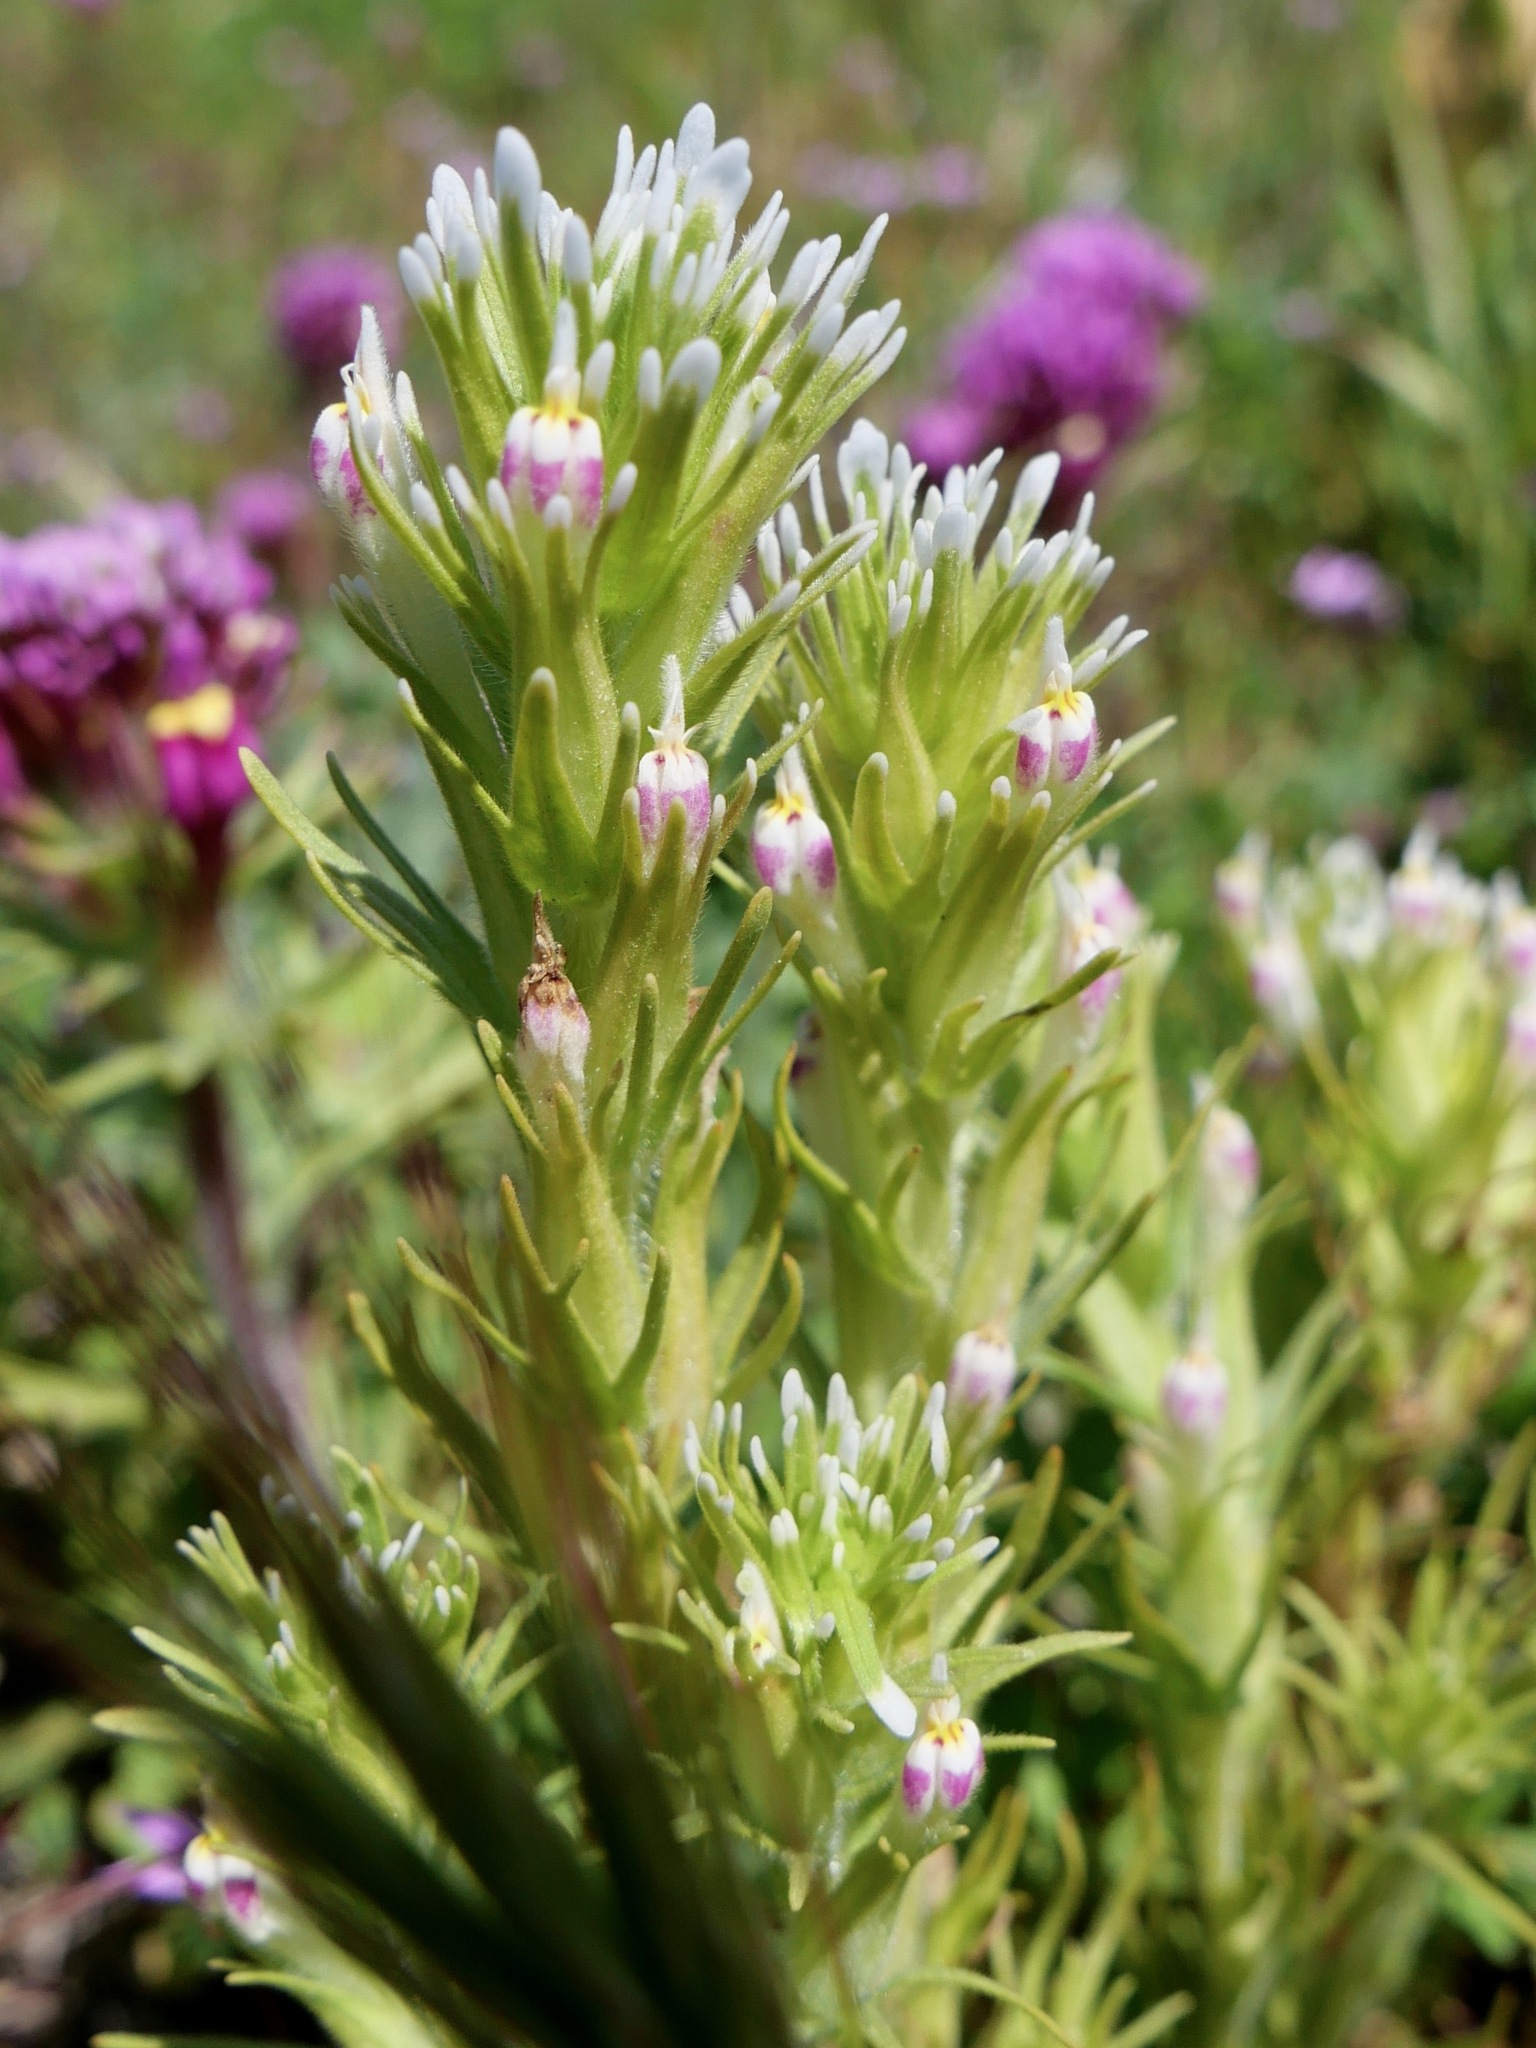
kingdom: Plantae
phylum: Tracheophyta
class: Magnoliopsida
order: Lamiales
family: Orobanchaceae
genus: Castilleja
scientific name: Castilleja brevistyla
